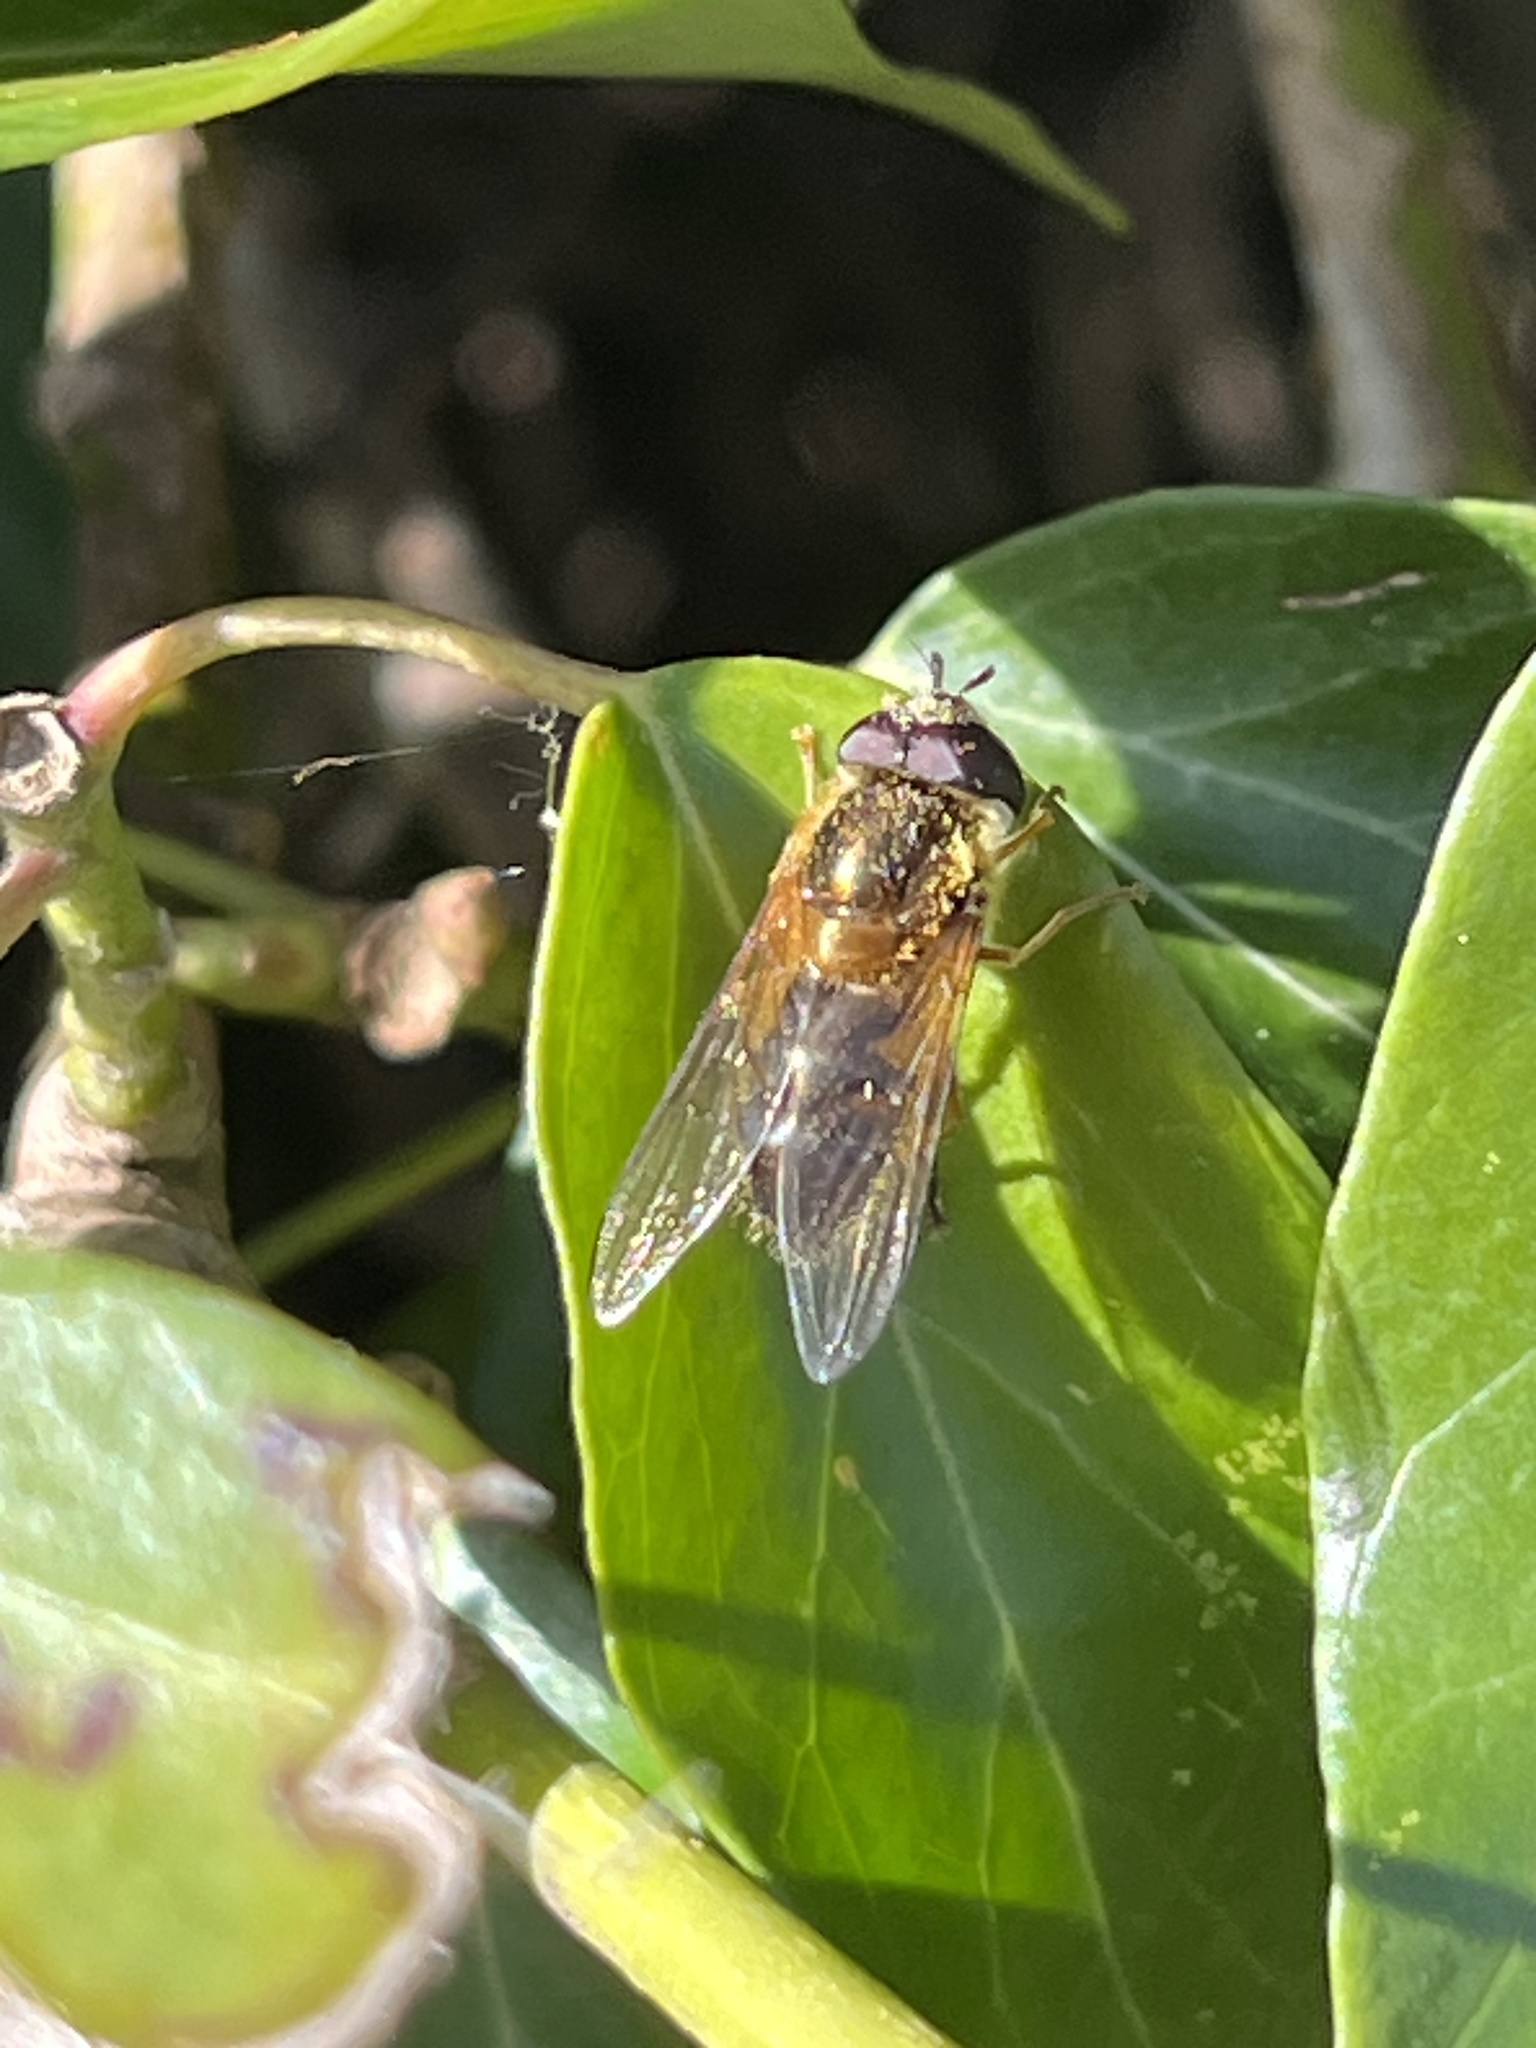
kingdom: Animalia
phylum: Arthropoda
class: Insecta
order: Diptera
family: Syrphidae
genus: Epistrophe
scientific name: Epistrophe eligans
